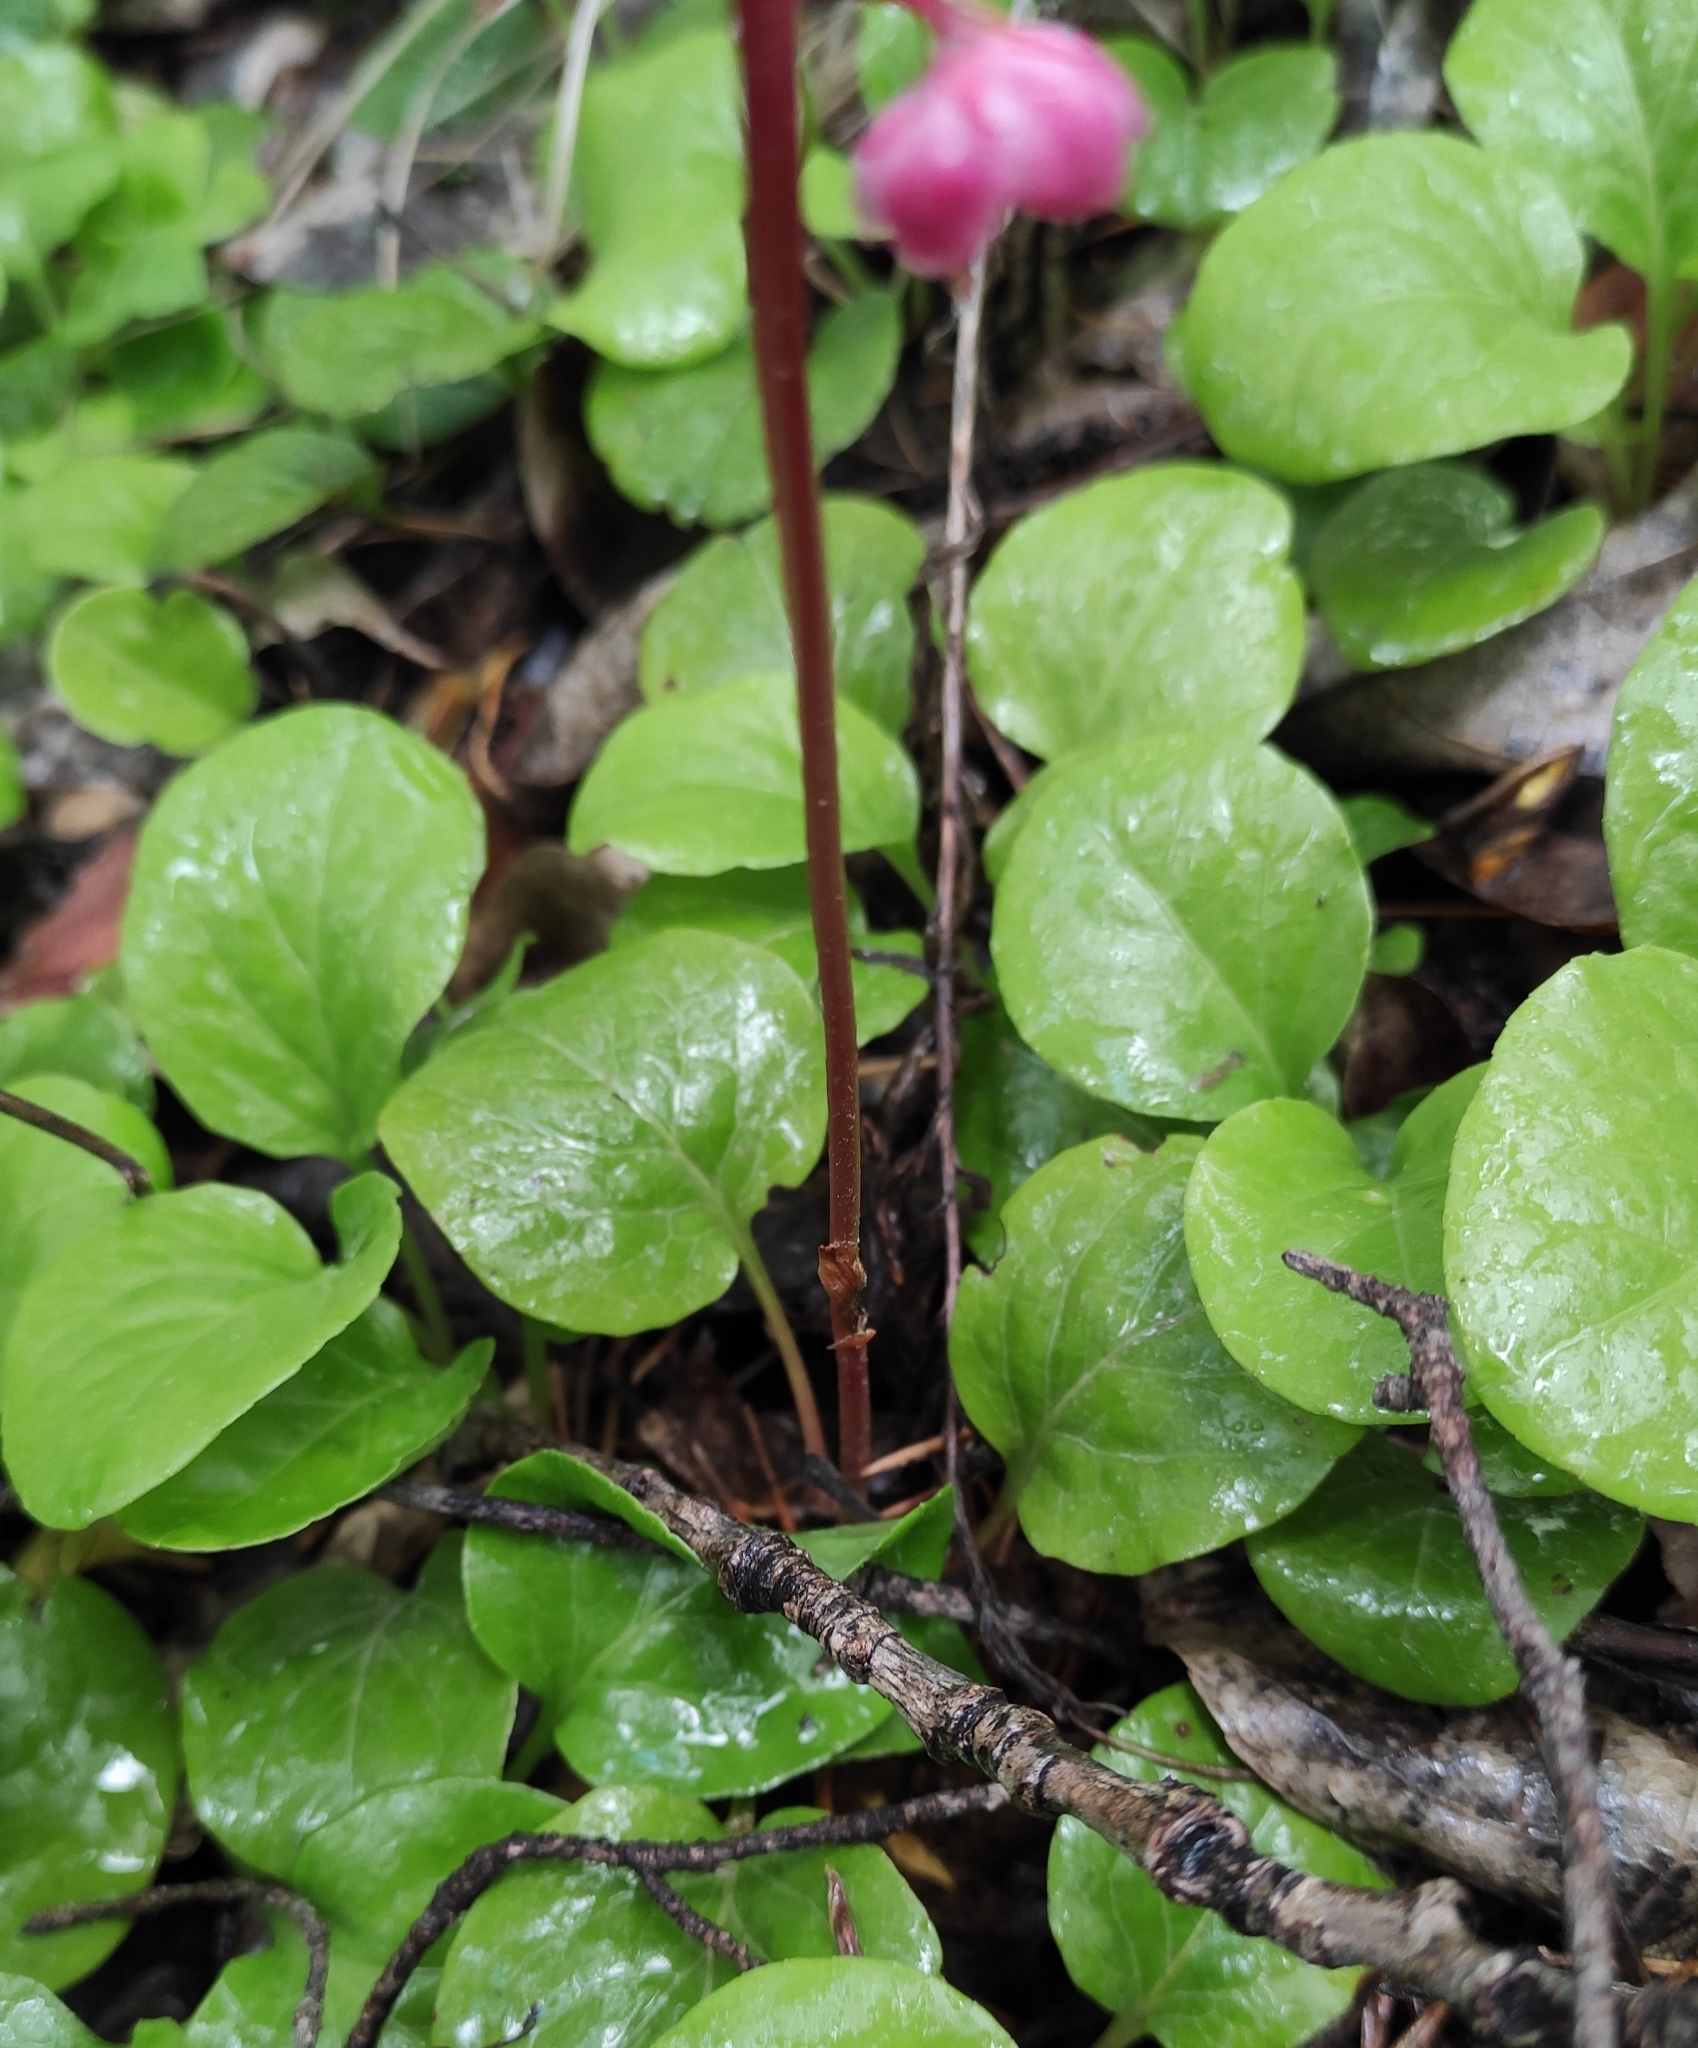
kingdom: Plantae
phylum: Tracheophyta
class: Magnoliopsida
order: Ericales
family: Ericaceae
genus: Pyrola
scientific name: Pyrola asarifolia
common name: Bog wintergreen
